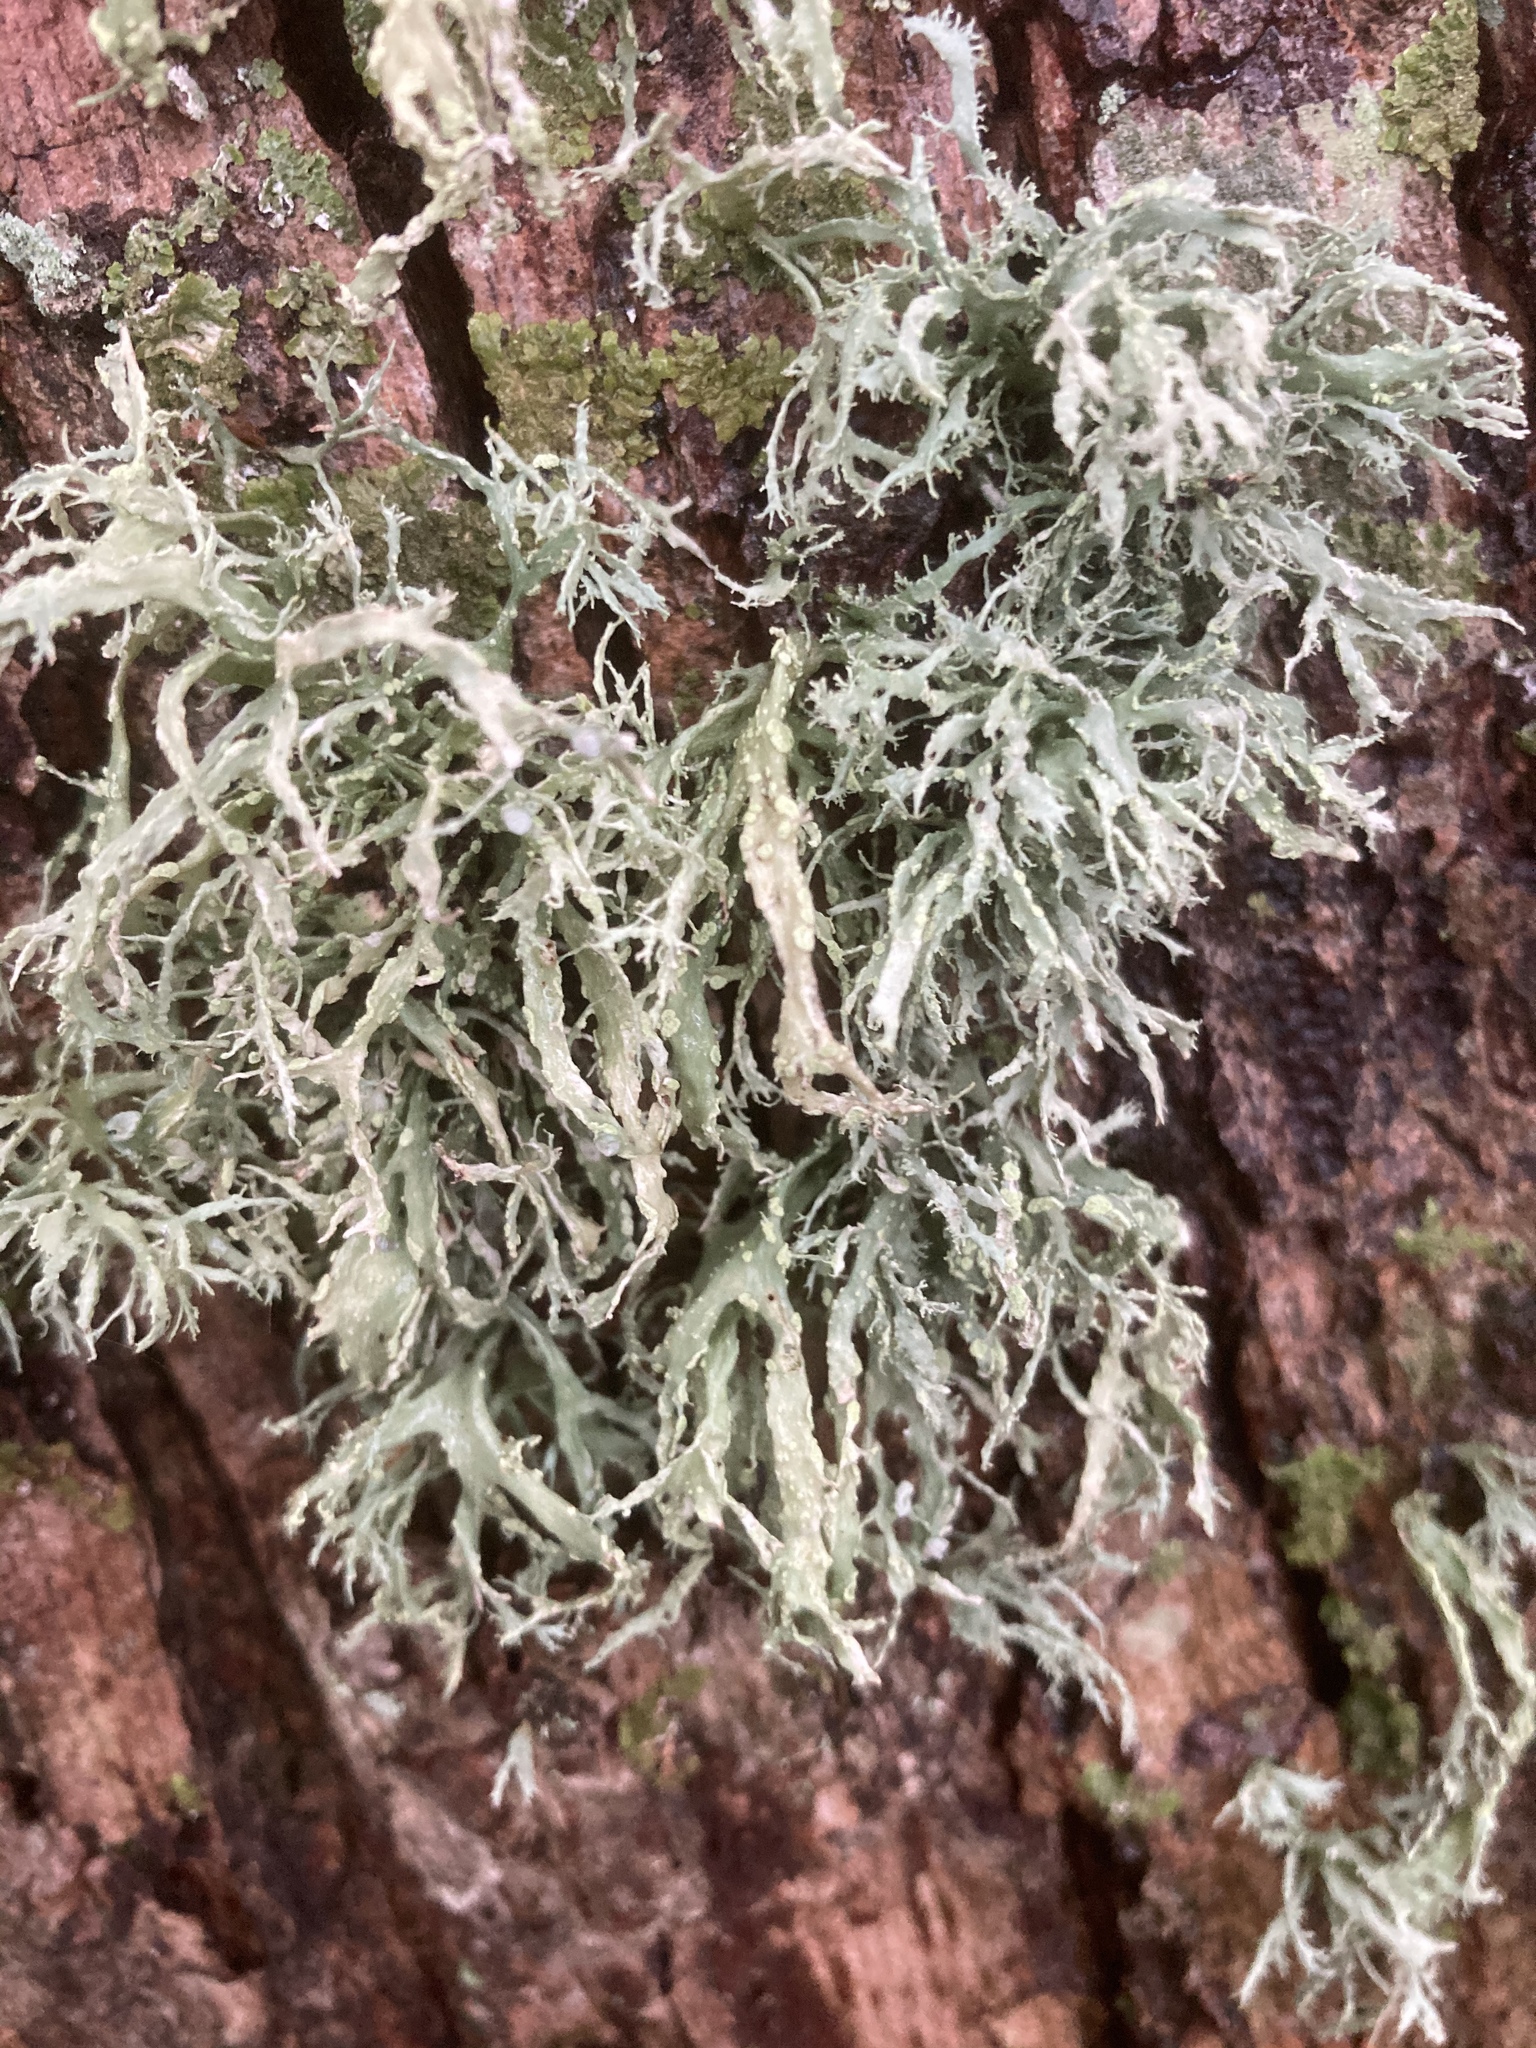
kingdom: Fungi
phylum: Ascomycota
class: Lecanoromycetes
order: Lecanorales
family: Ramalinaceae
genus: Ramalina
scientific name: Ramalina farinacea
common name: Farinose cartilage lichen
